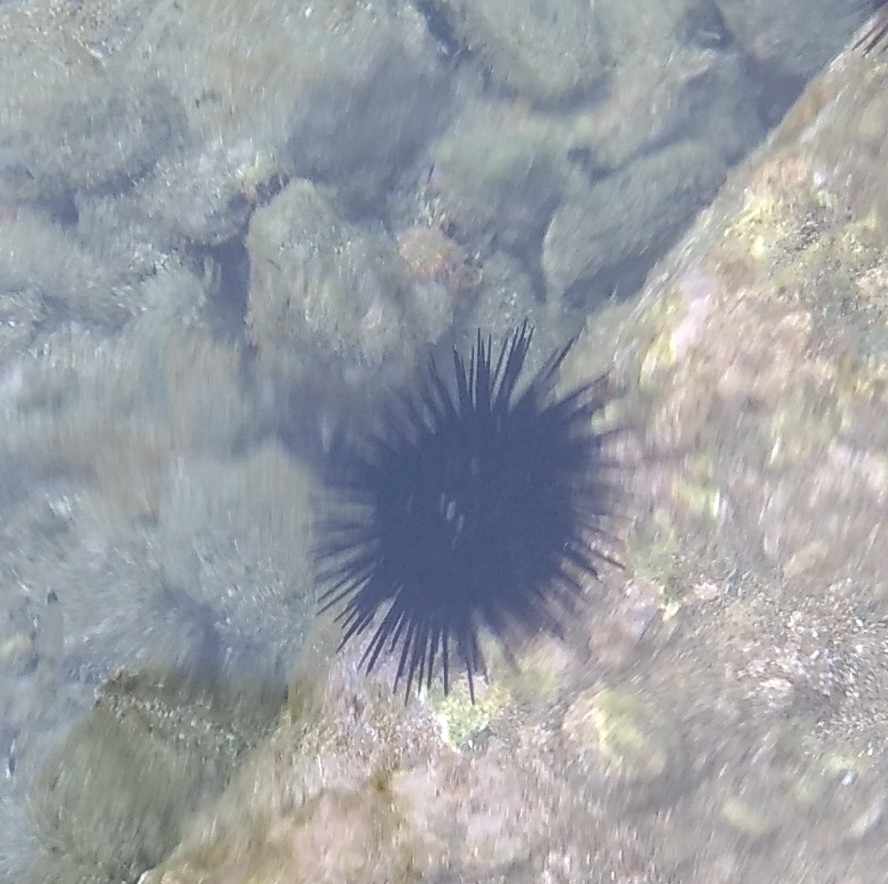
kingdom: Animalia
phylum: Echinodermata
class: Echinoidea
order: Arbacioida
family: Arbaciidae
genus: Arbacia
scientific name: Arbacia lixula
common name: Black sea urchin
